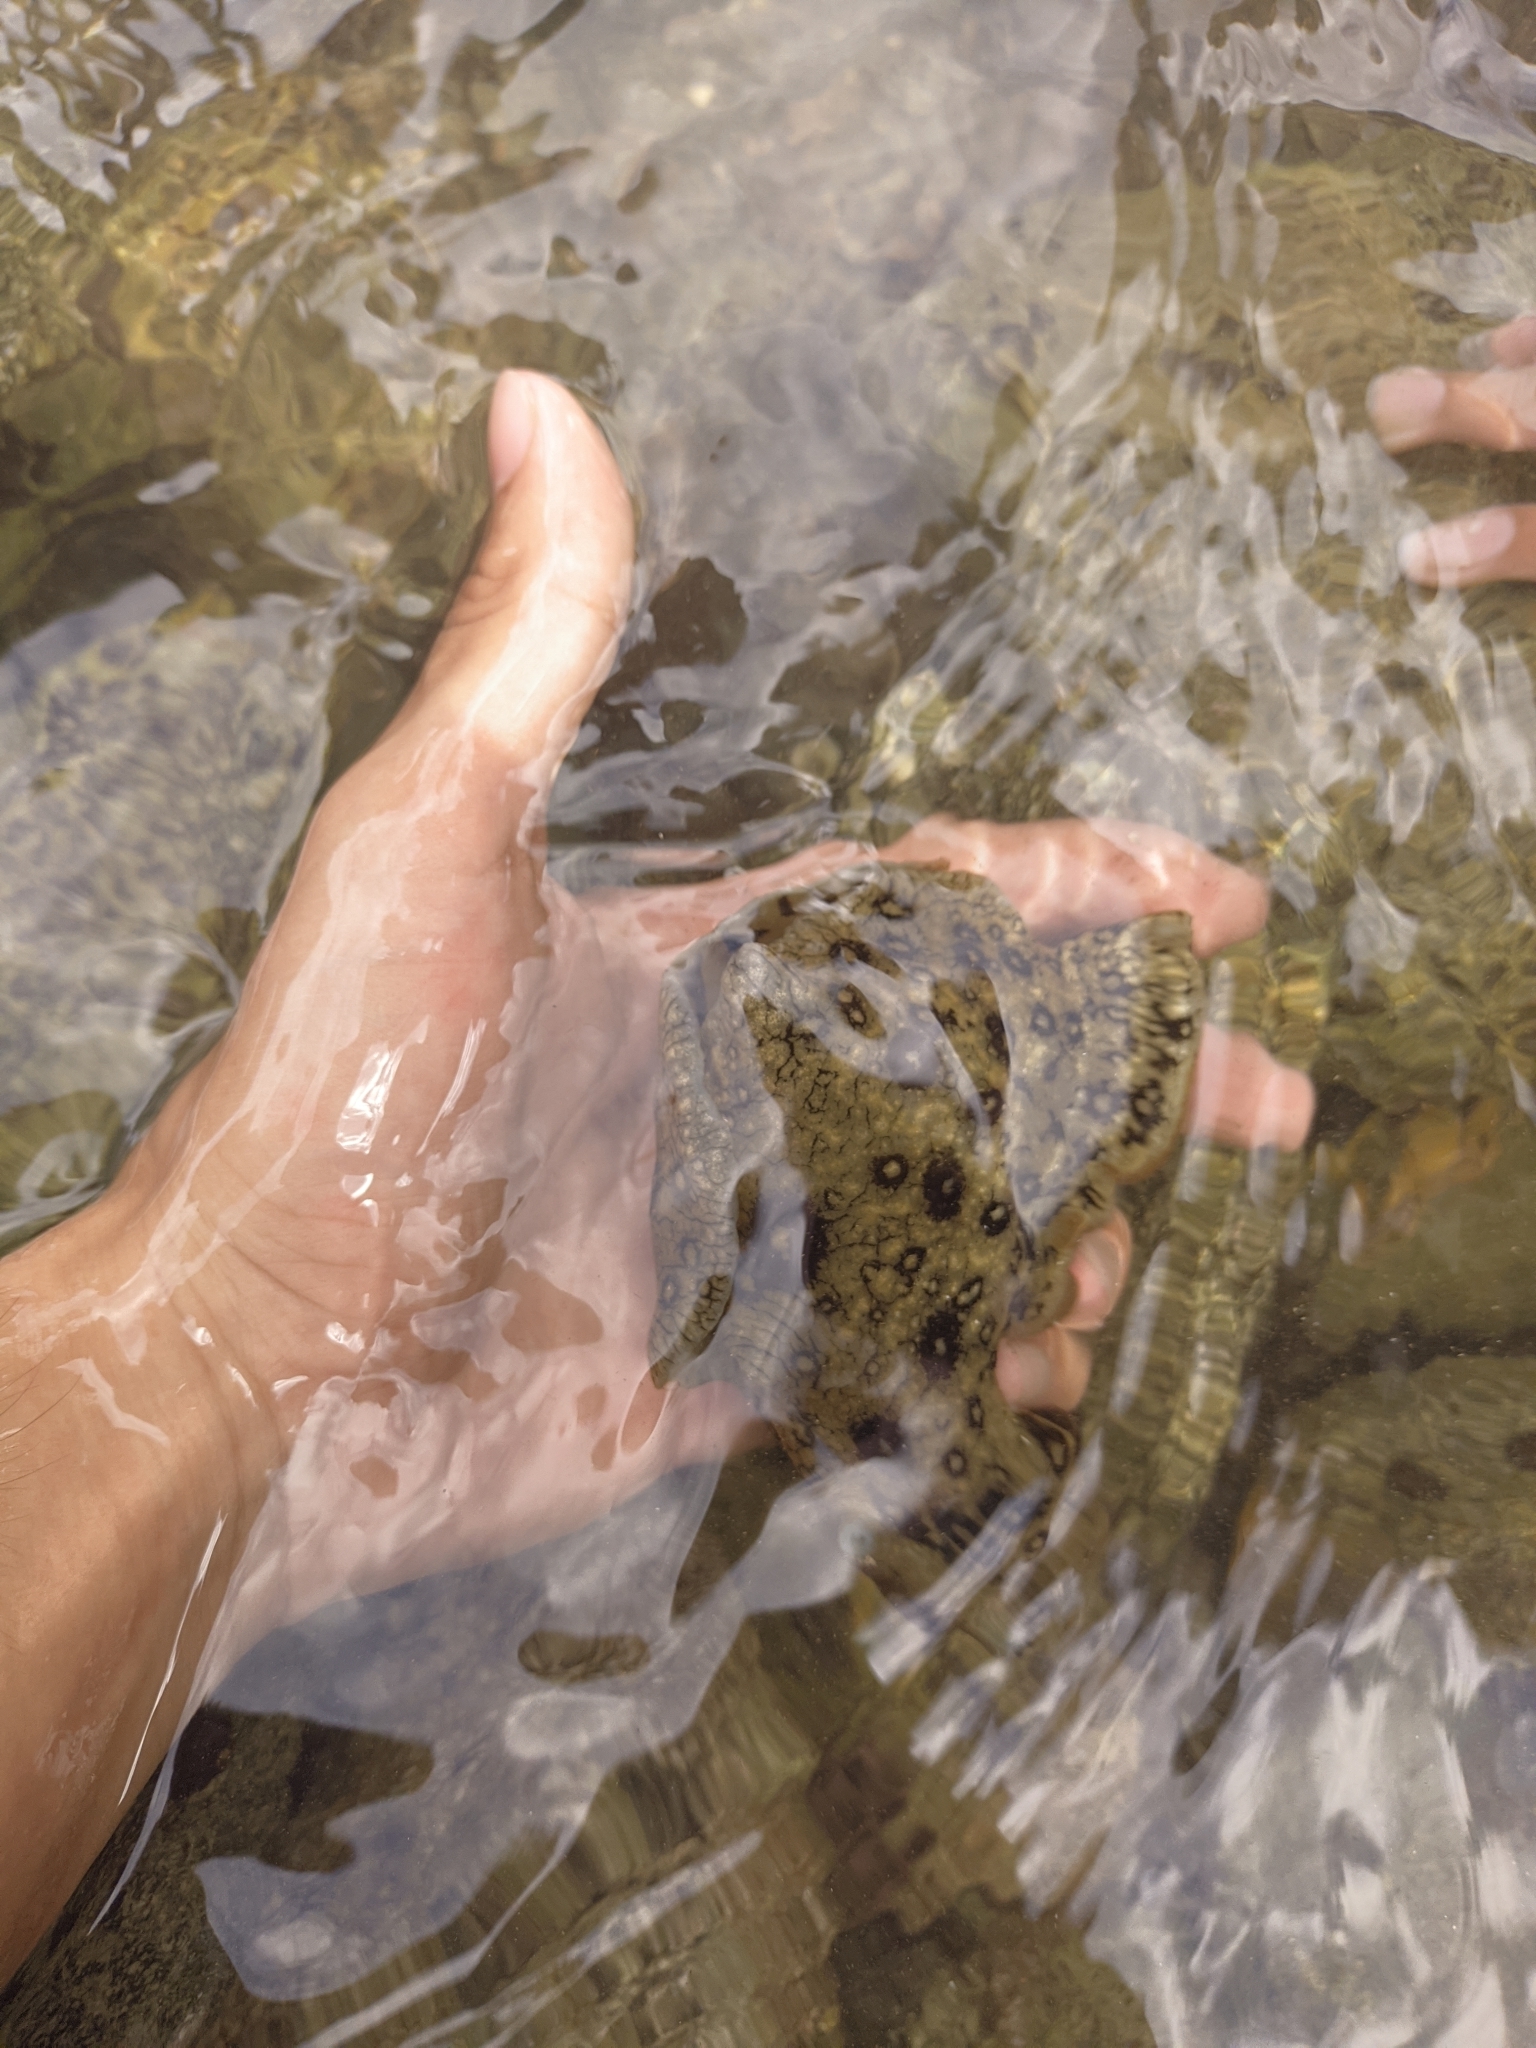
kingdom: Animalia
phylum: Mollusca
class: Gastropoda
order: Aplysiida
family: Aplysiidae
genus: Aplysia
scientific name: Aplysia dactylomela
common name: Large-spotted sea hare
